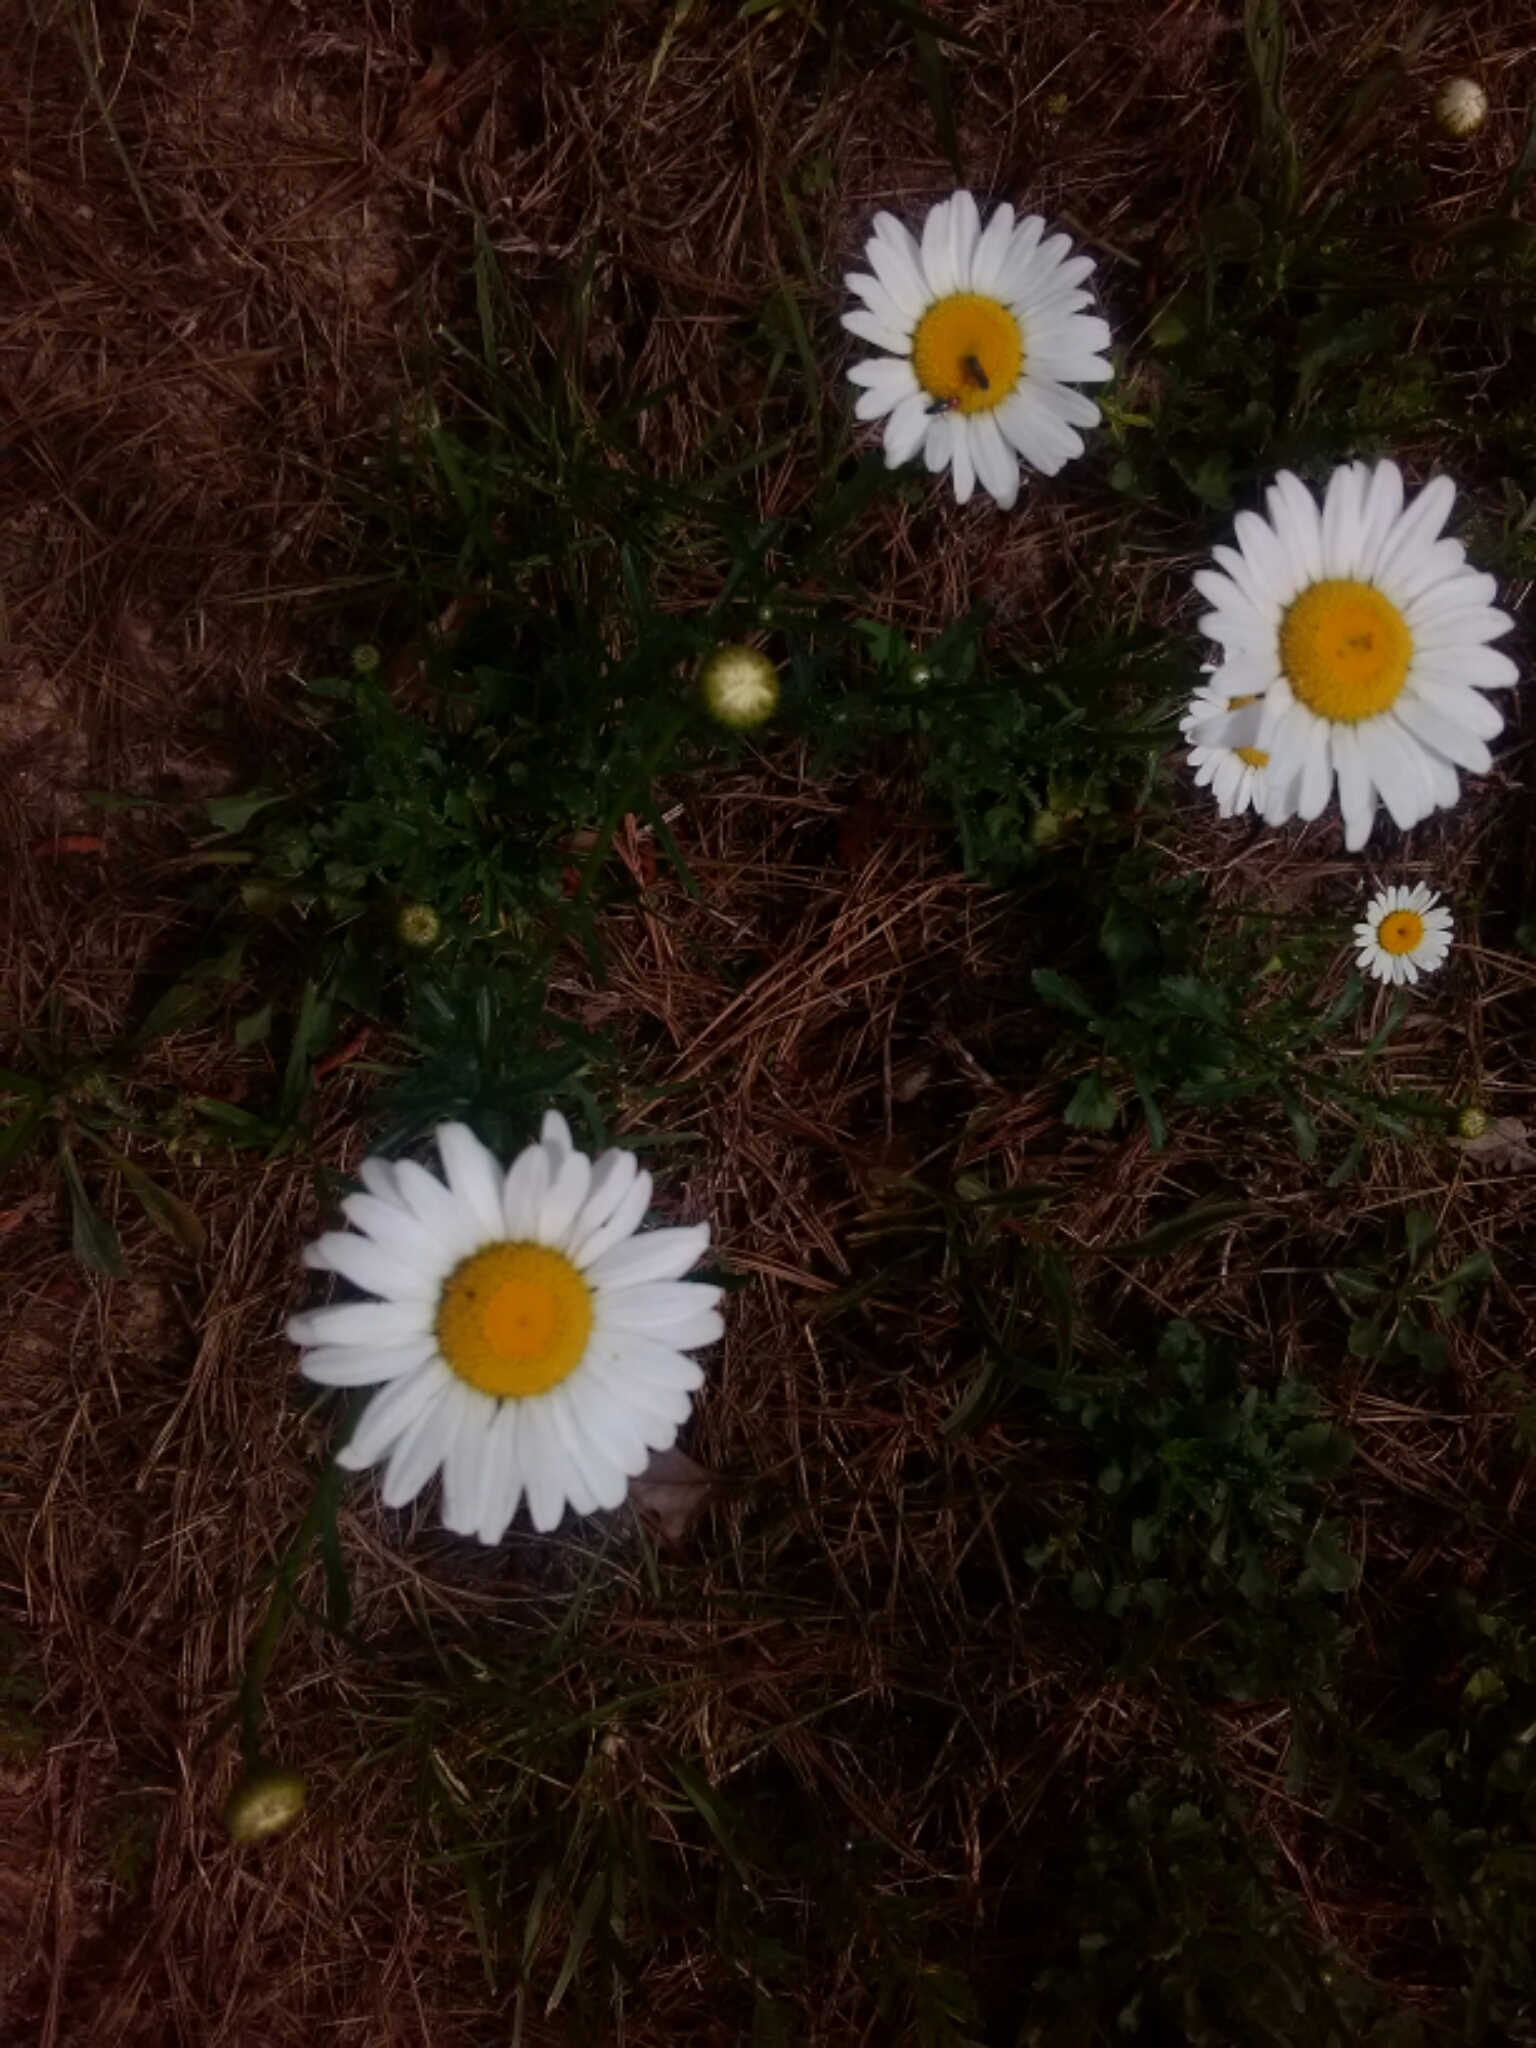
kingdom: Plantae
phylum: Tracheophyta
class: Magnoliopsida
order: Asterales
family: Asteraceae
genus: Leucanthemum
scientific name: Leucanthemum vulgare
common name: Oxeye daisy
